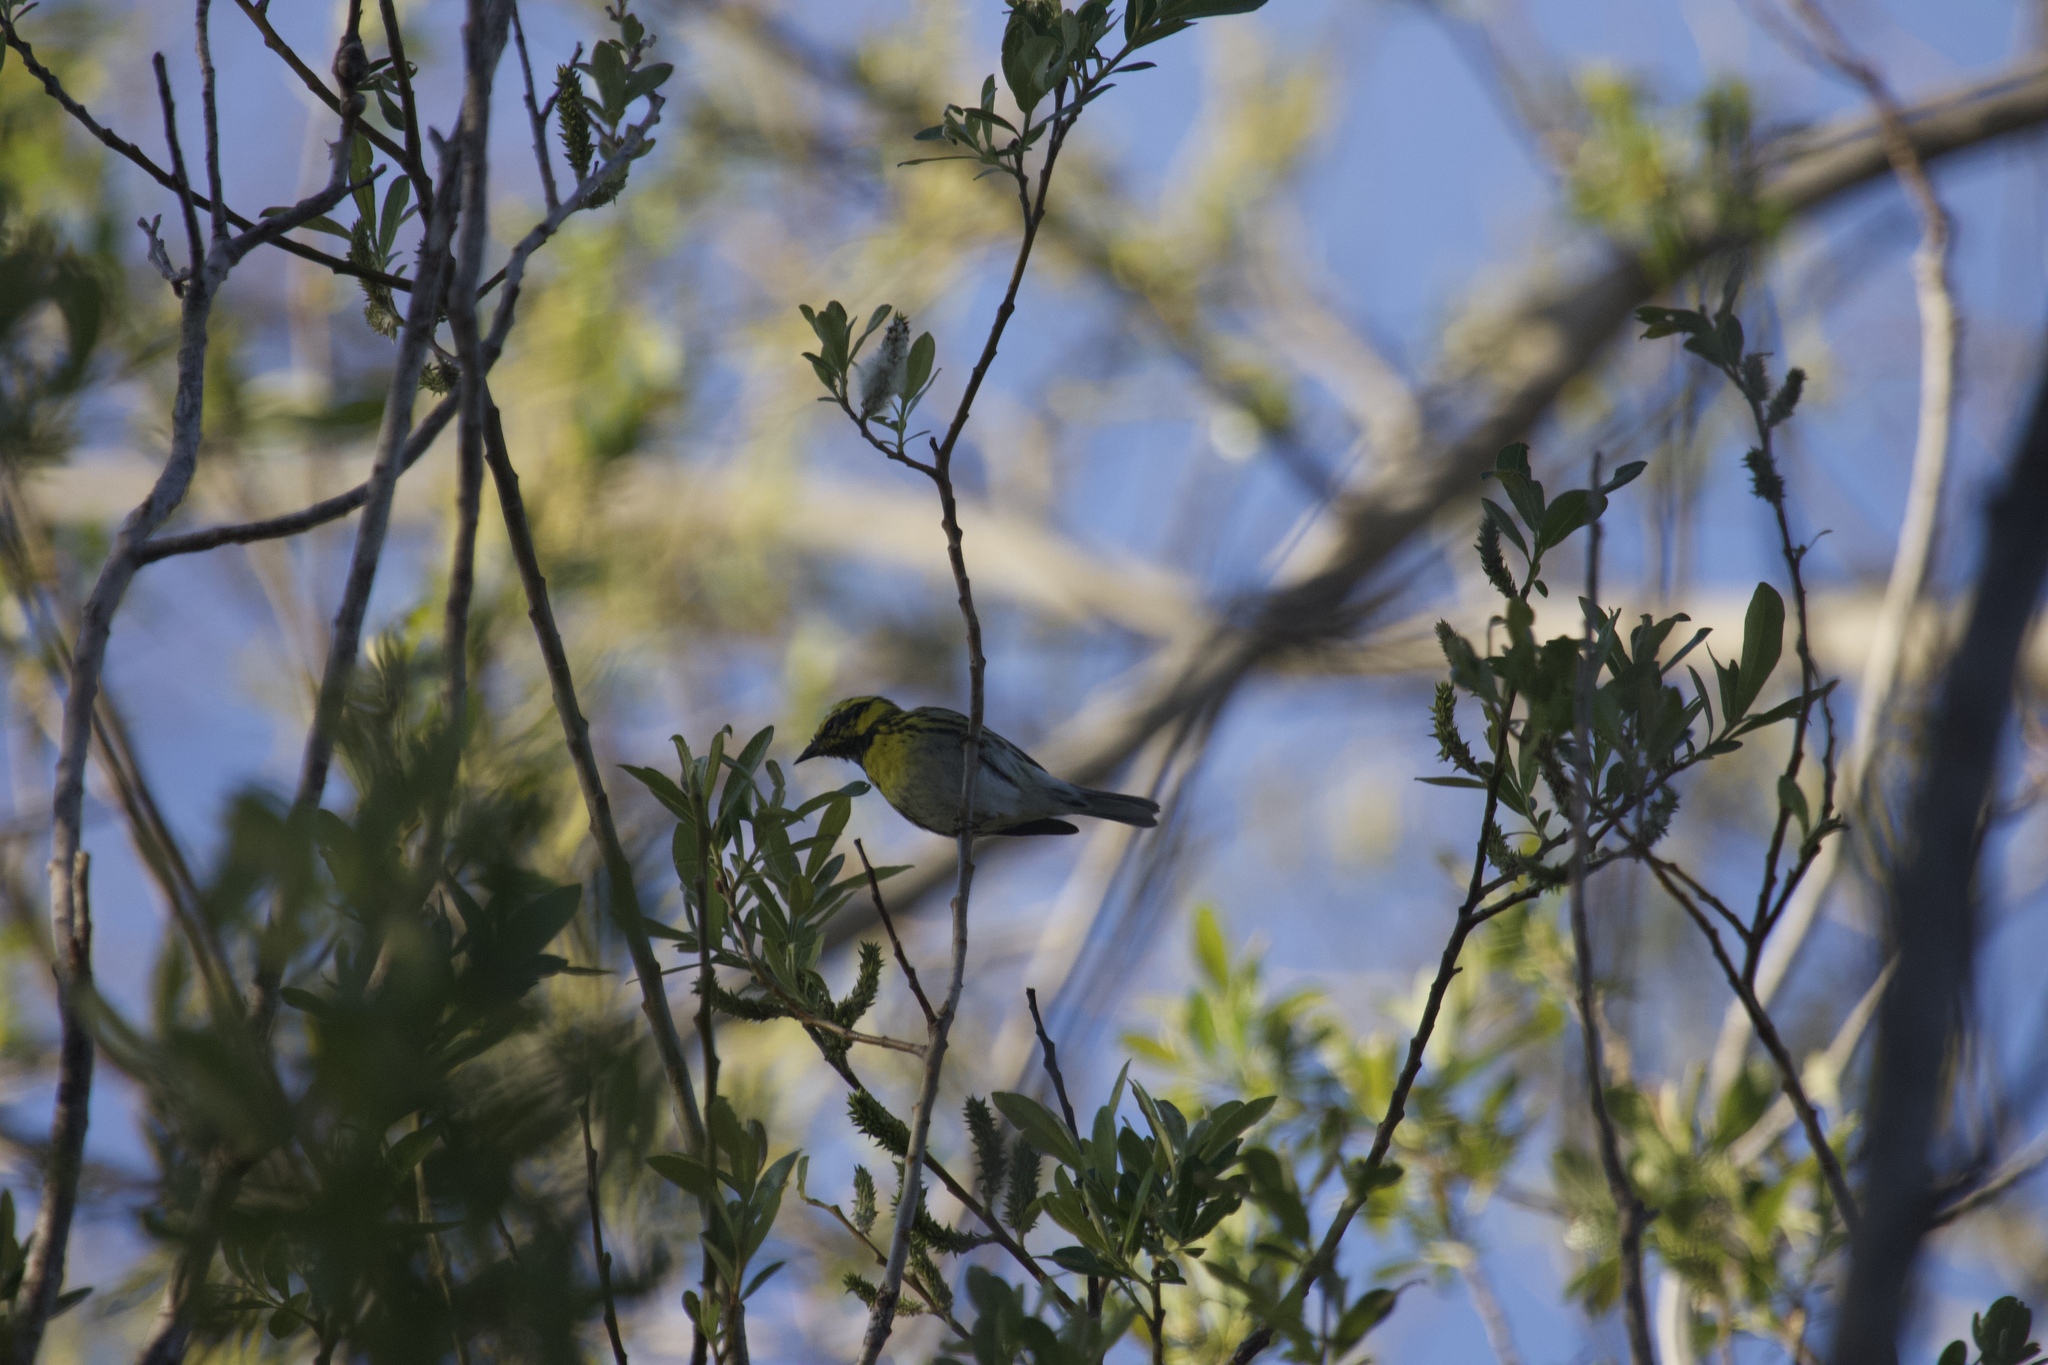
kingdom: Animalia
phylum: Chordata
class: Aves
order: Passeriformes
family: Parulidae
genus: Setophaga
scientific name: Setophaga townsendi
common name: Townsend's warbler
